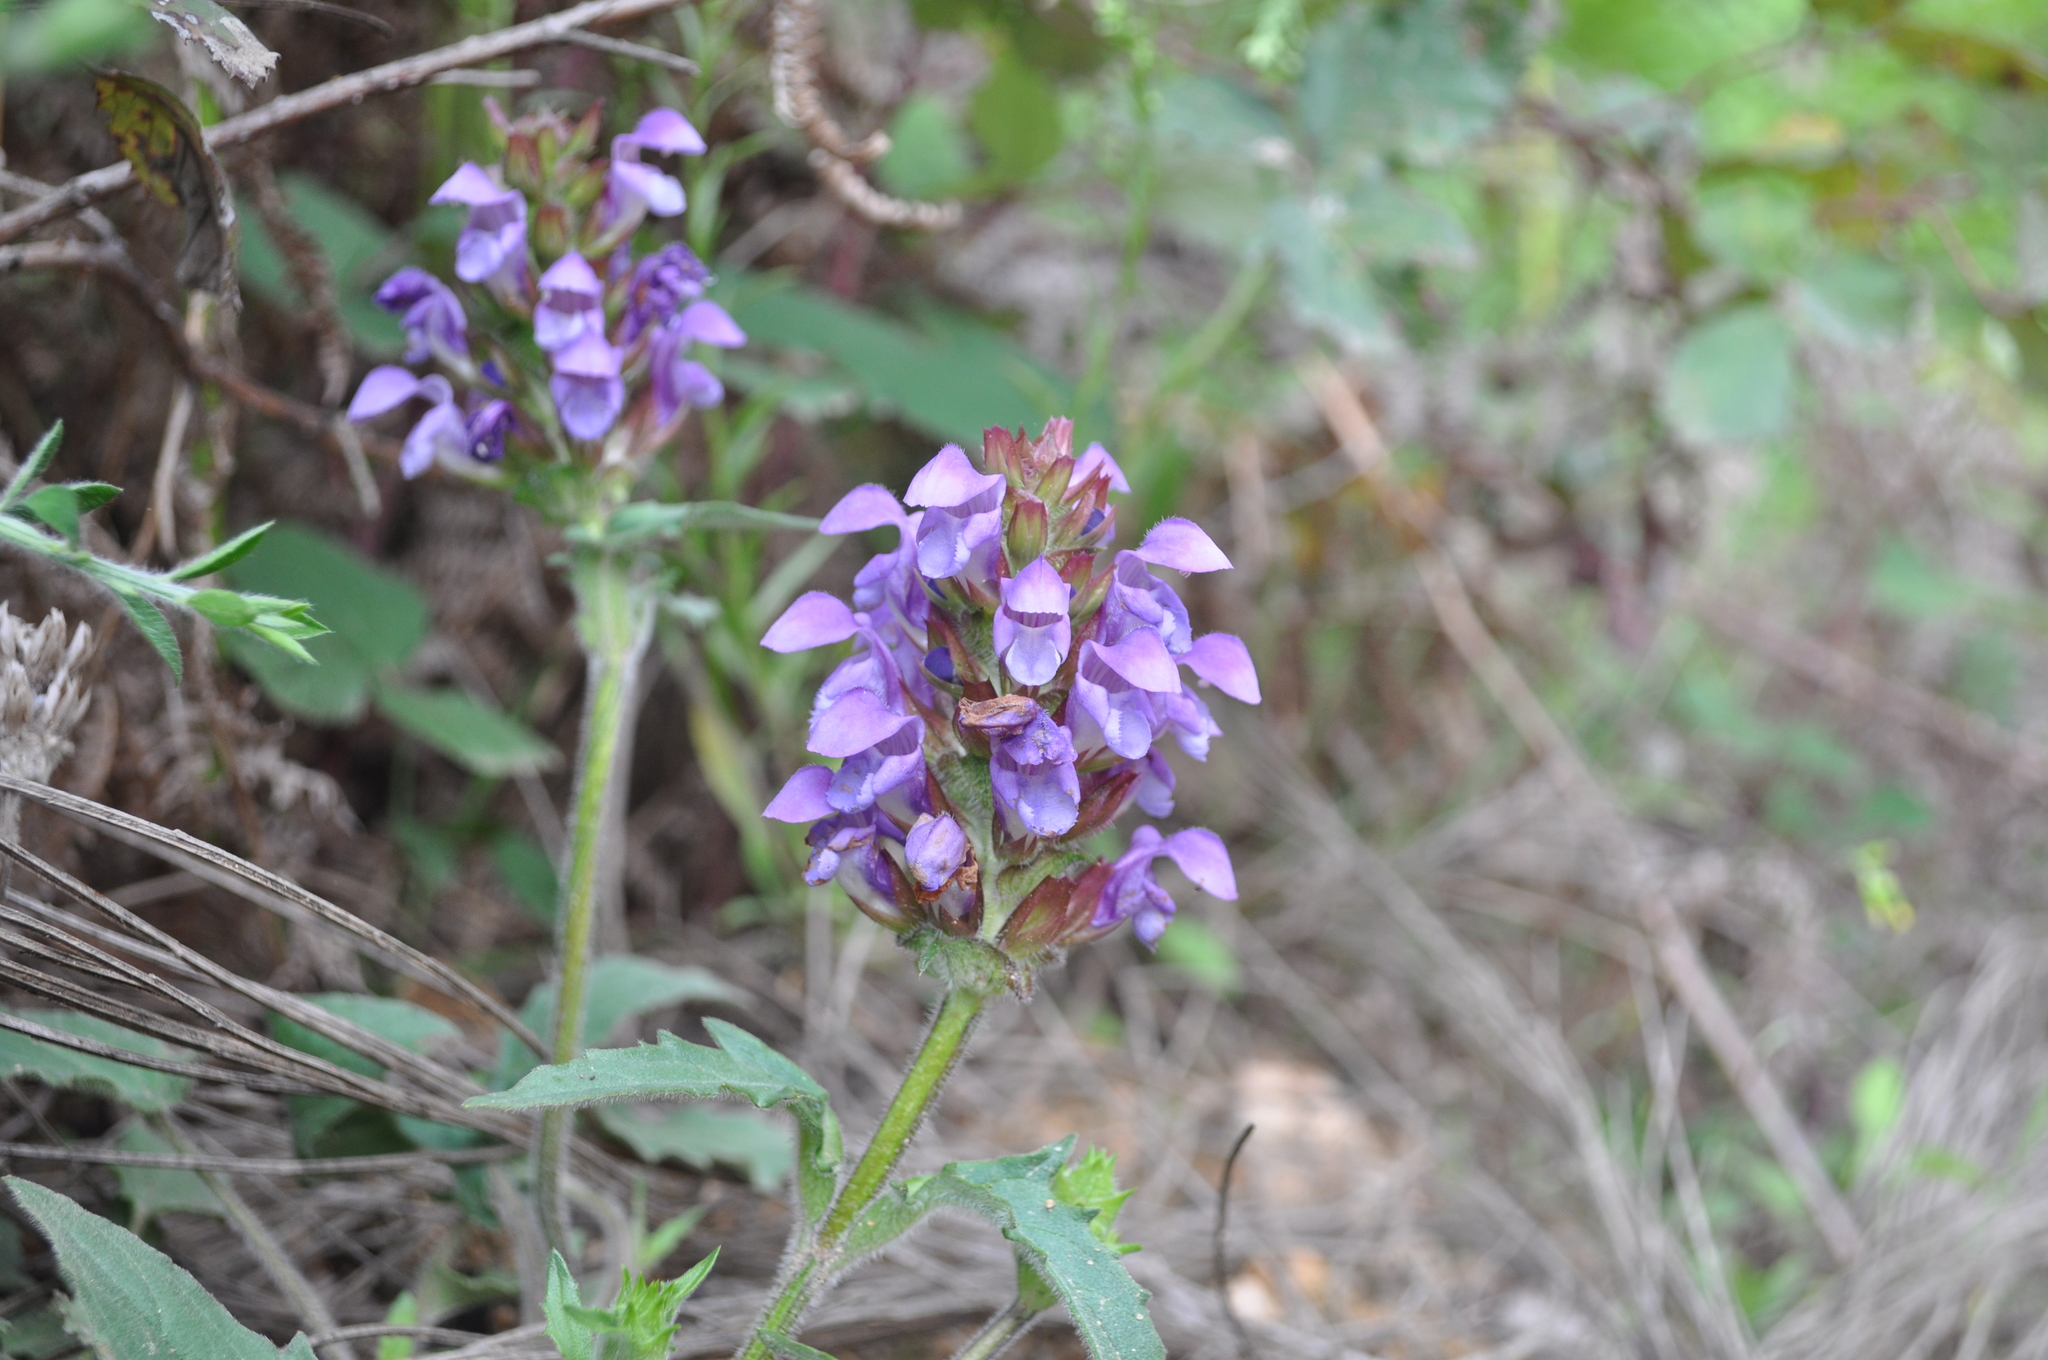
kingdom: Plantae
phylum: Tracheophyta
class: Magnoliopsida
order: Lamiales
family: Lamiaceae
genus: Prunella
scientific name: Prunella grandiflora
